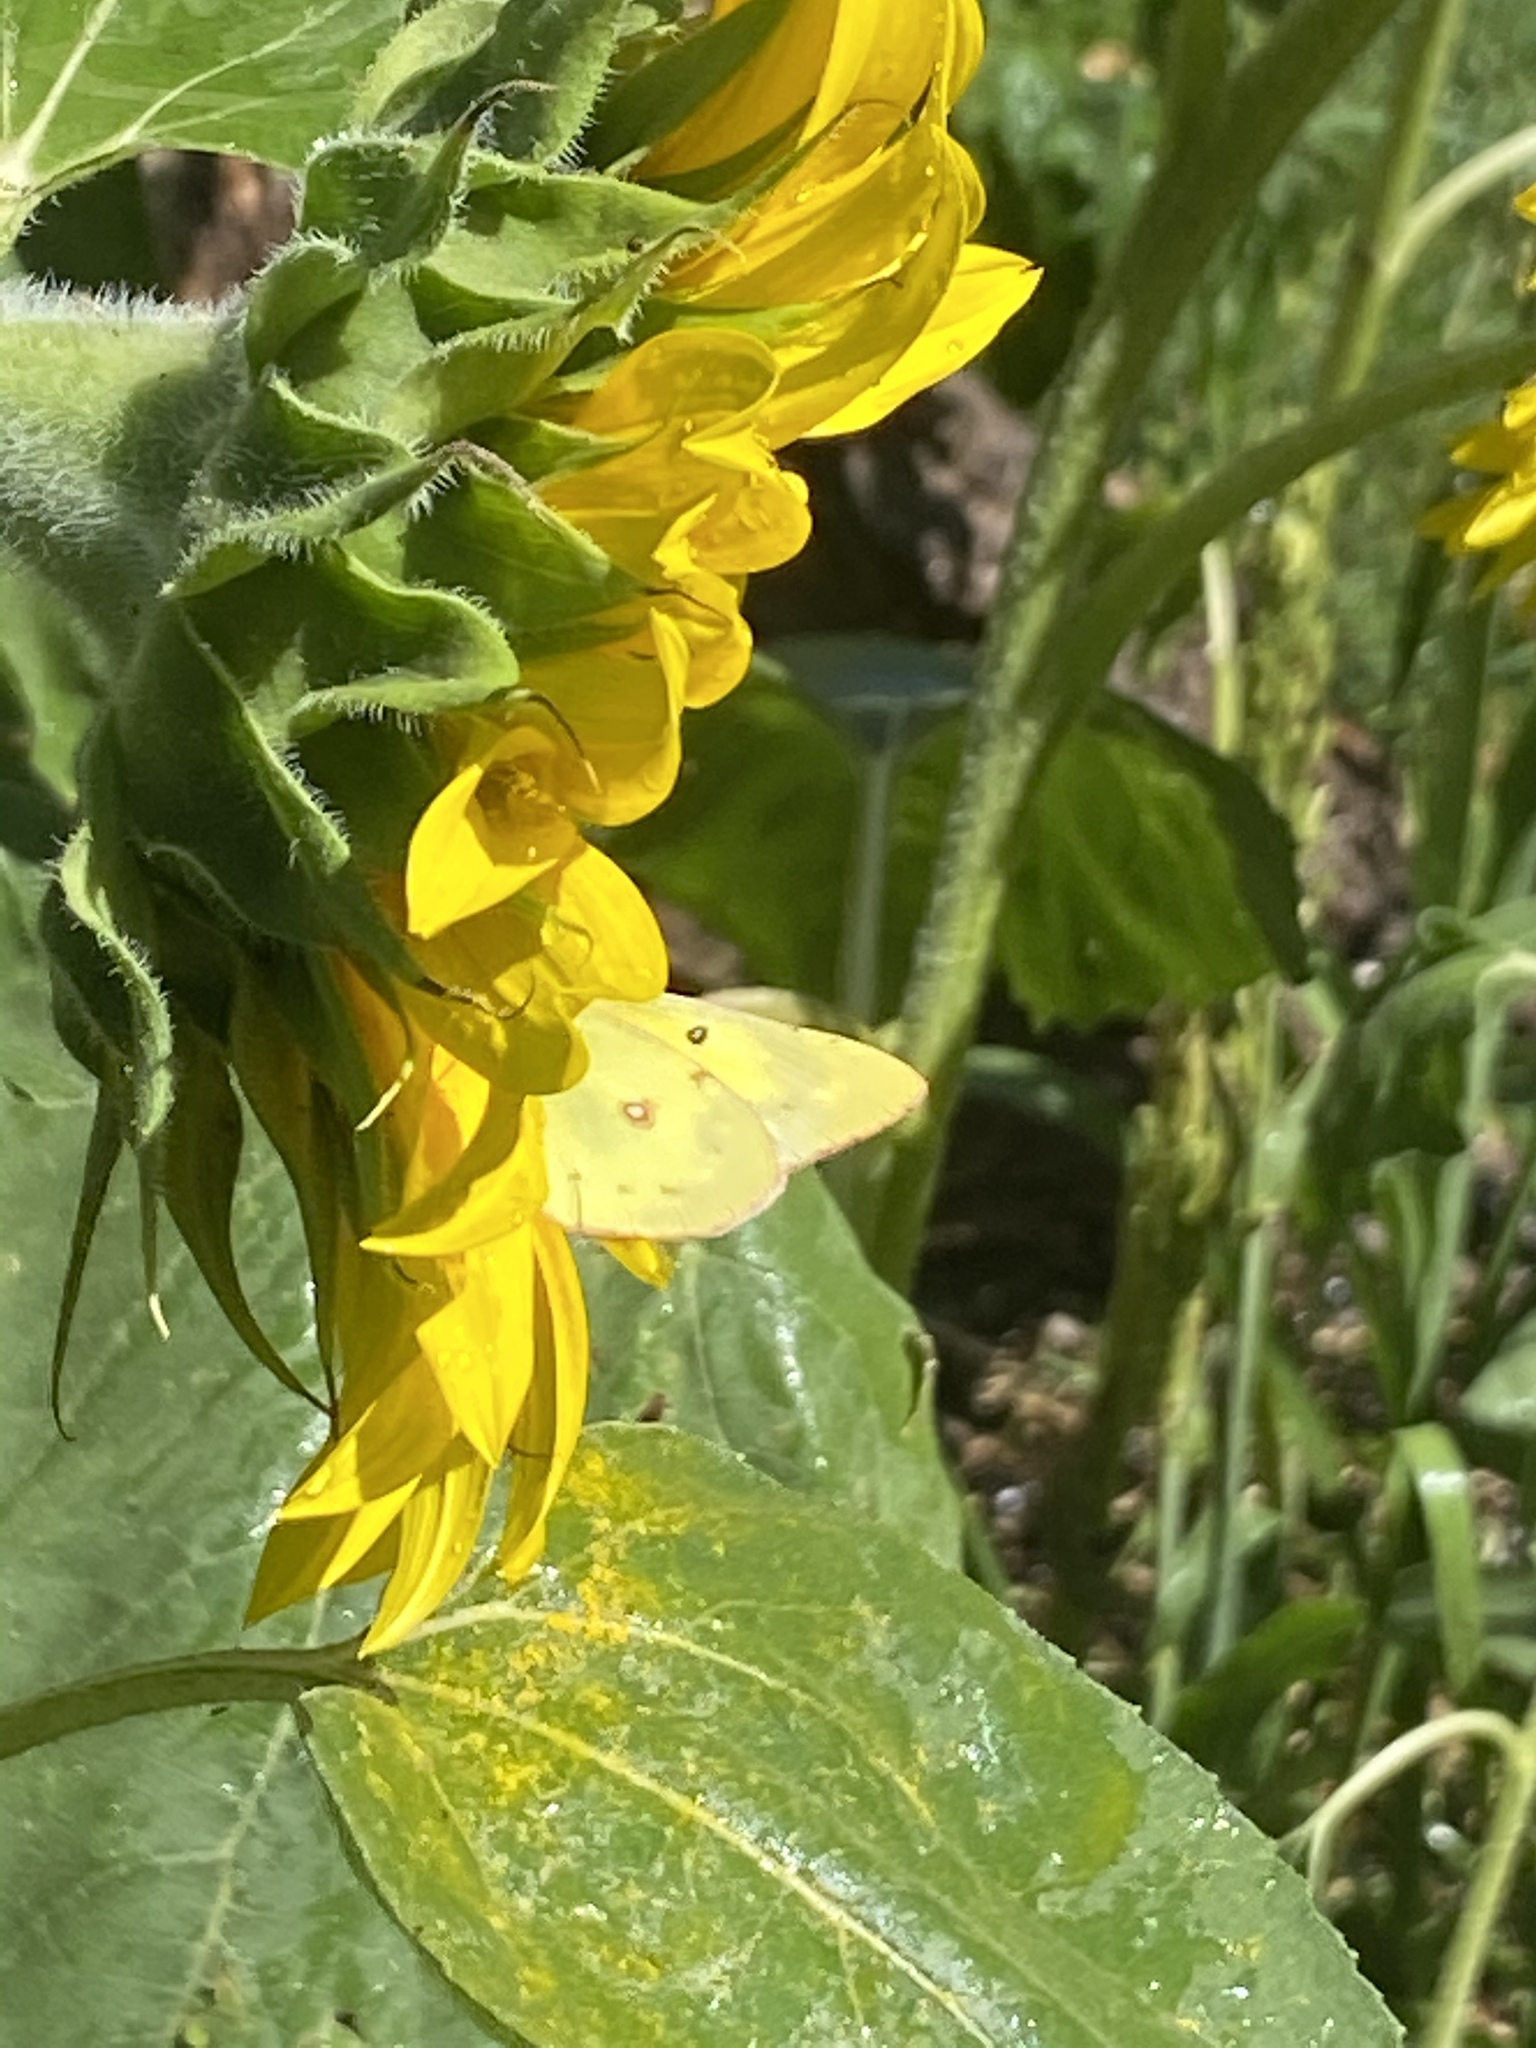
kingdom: Animalia
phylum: Arthropoda
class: Insecta
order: Lepidoptera
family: Pieridae
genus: Colias
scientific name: Colias eurytheme
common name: Alfalfa butterfly
